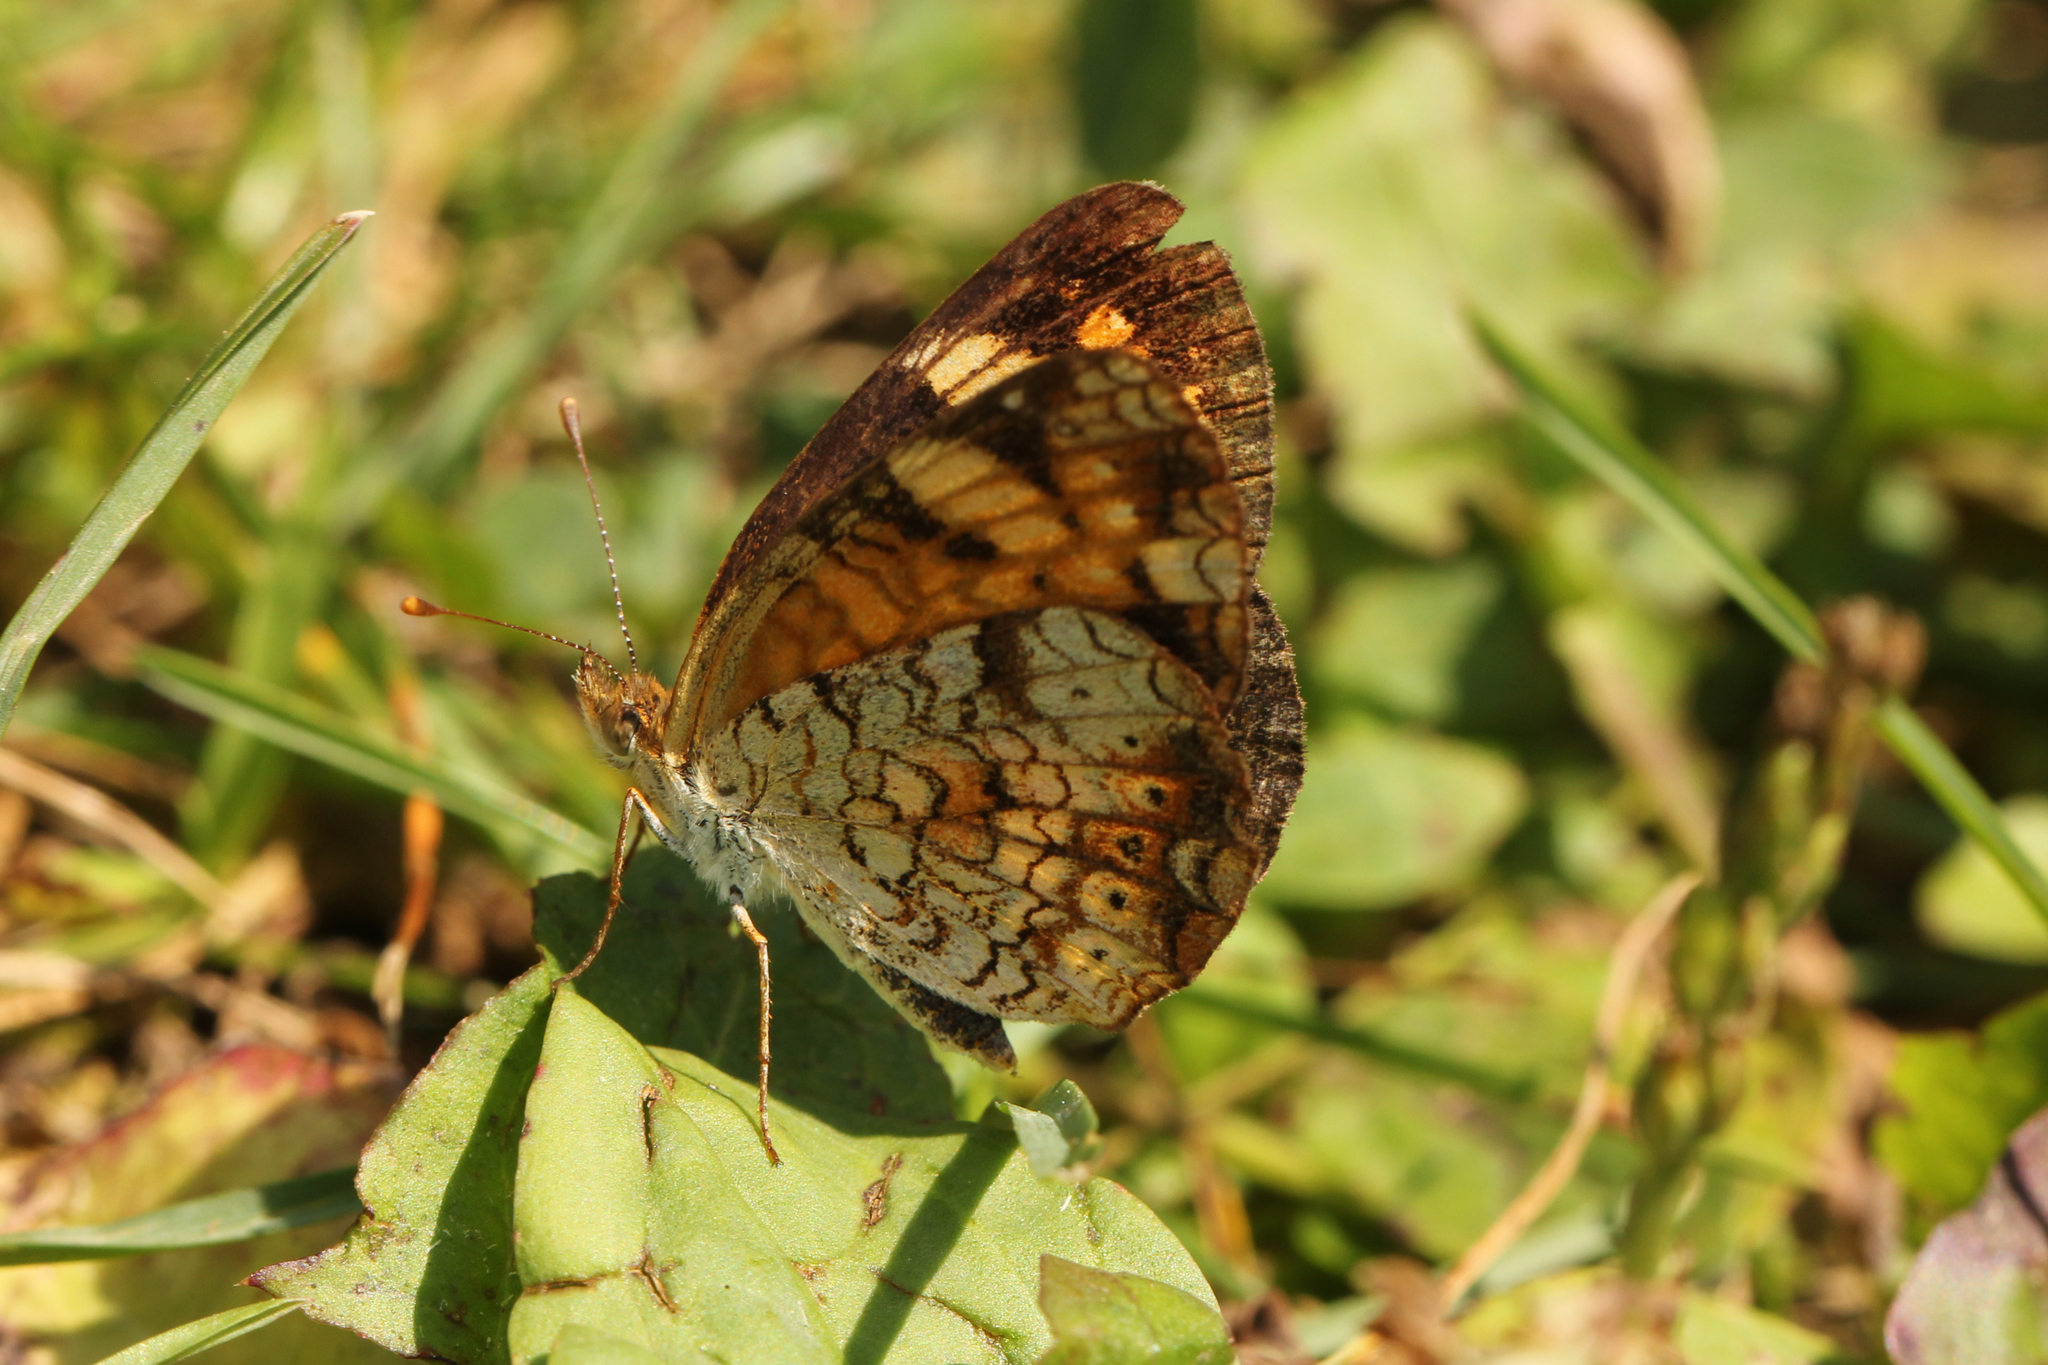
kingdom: Animalia
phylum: Arthropoda
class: Insecta
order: Lepidoptera
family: Nymphalidae
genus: Phyciodes
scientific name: Phyciodes tharos
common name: Pearl crescent
